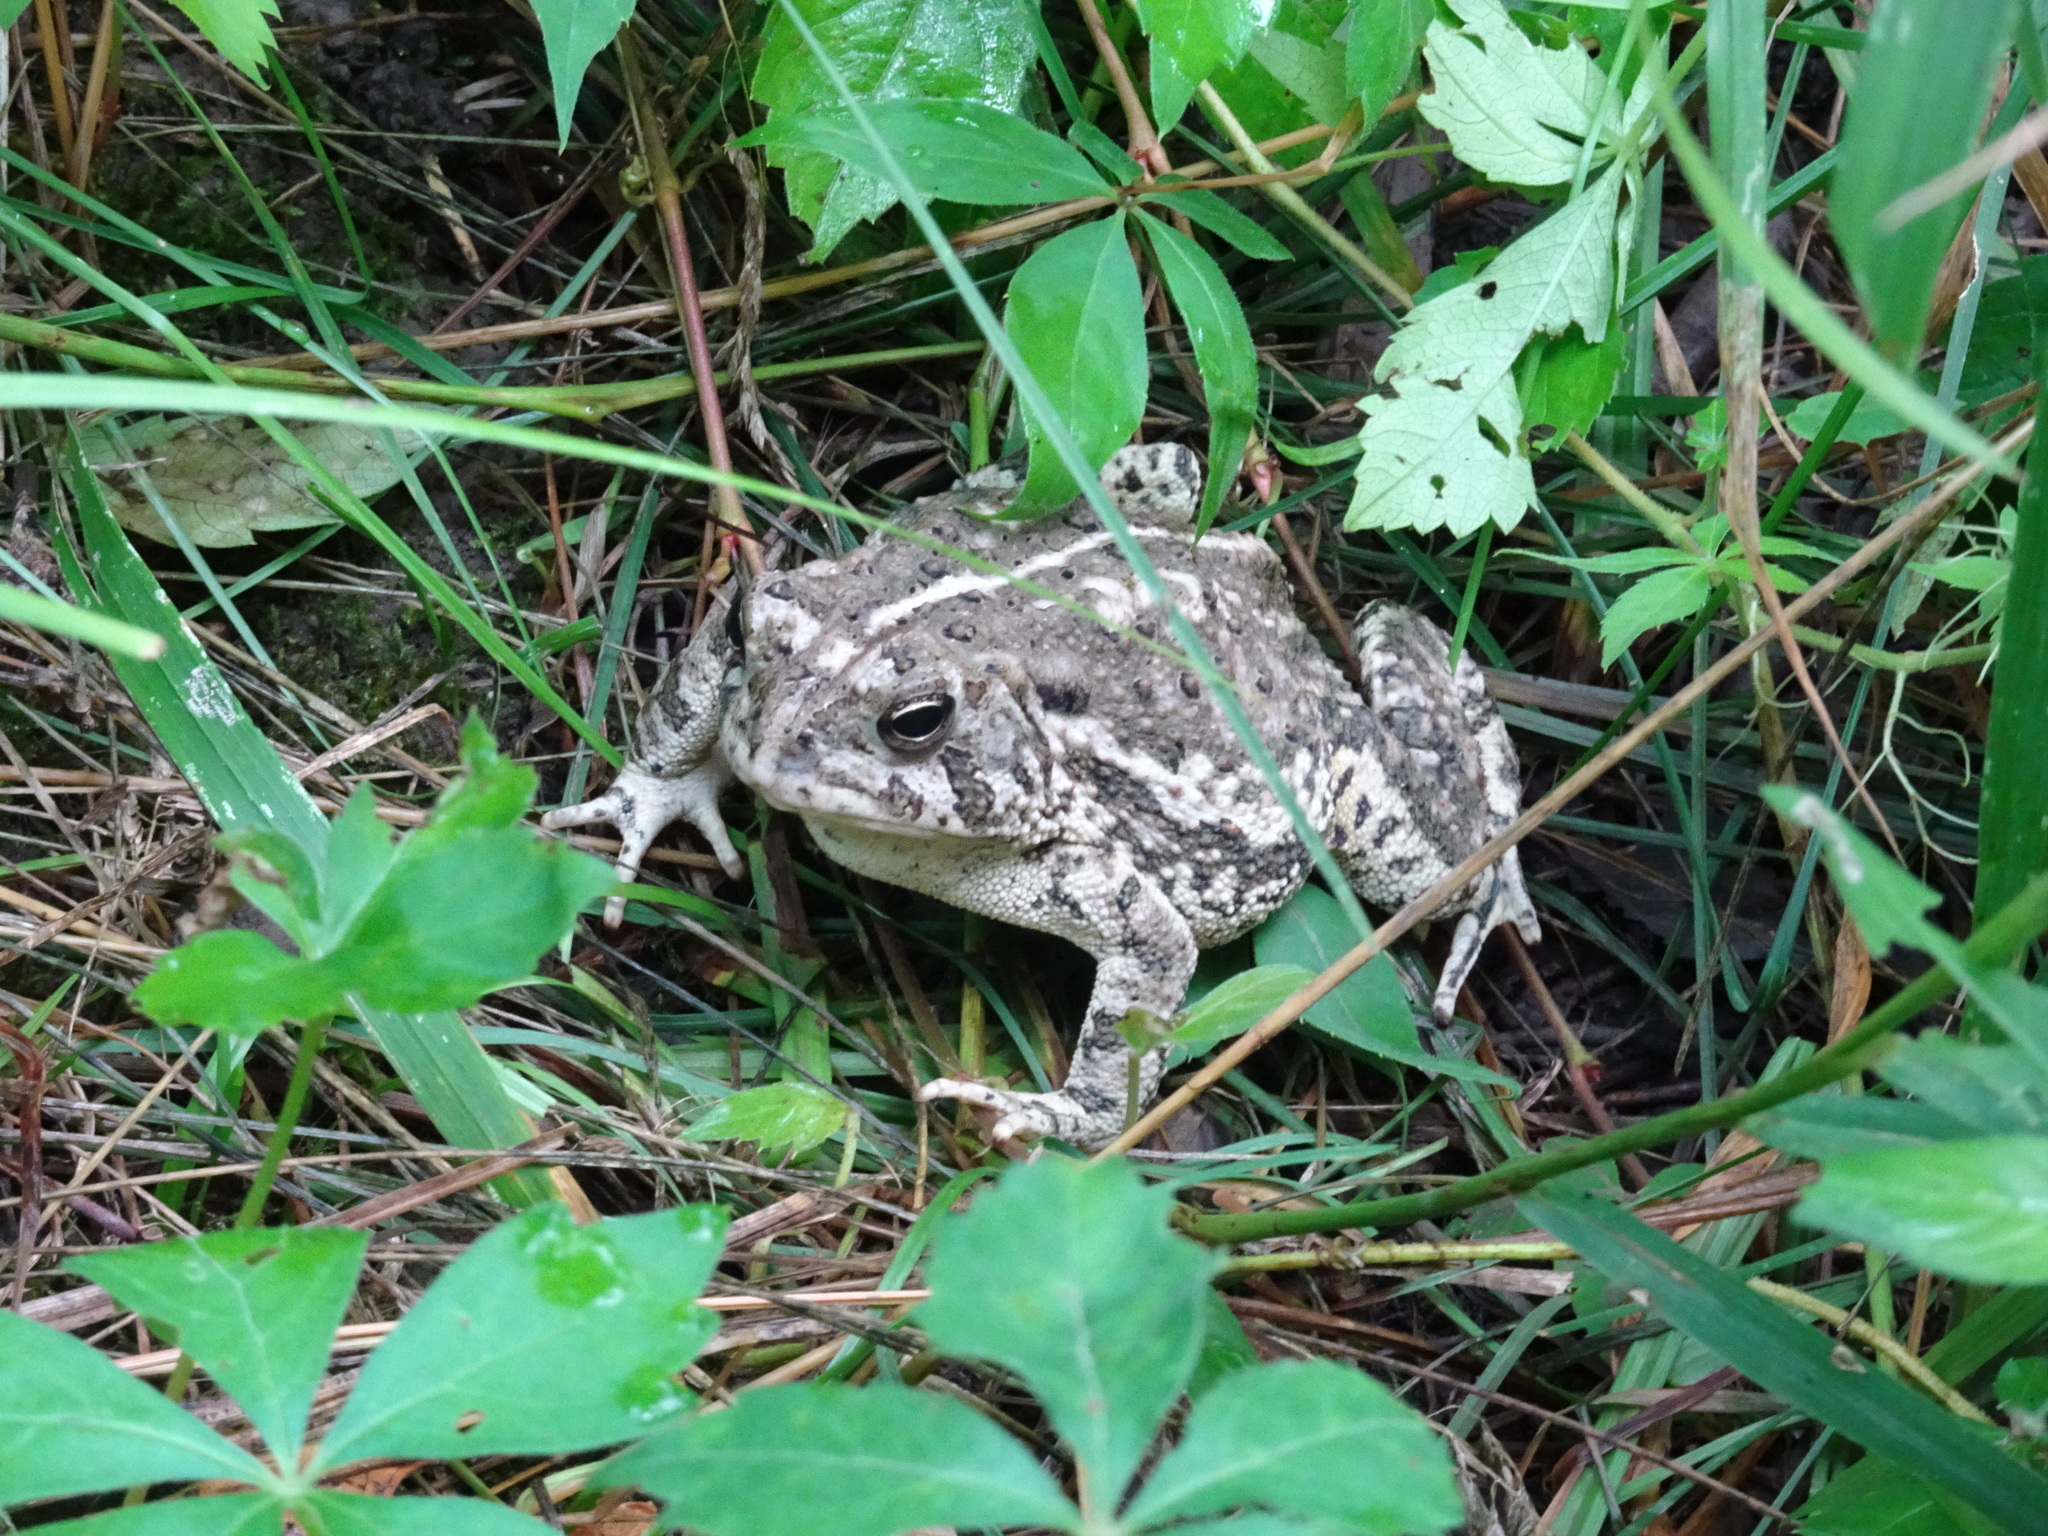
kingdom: Animalia
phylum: Chordata
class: Amphibia
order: Anura
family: Bufonidae
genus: Anaxyrus
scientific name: Anaxyrus woodhousii
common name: Woodhouse's toad
